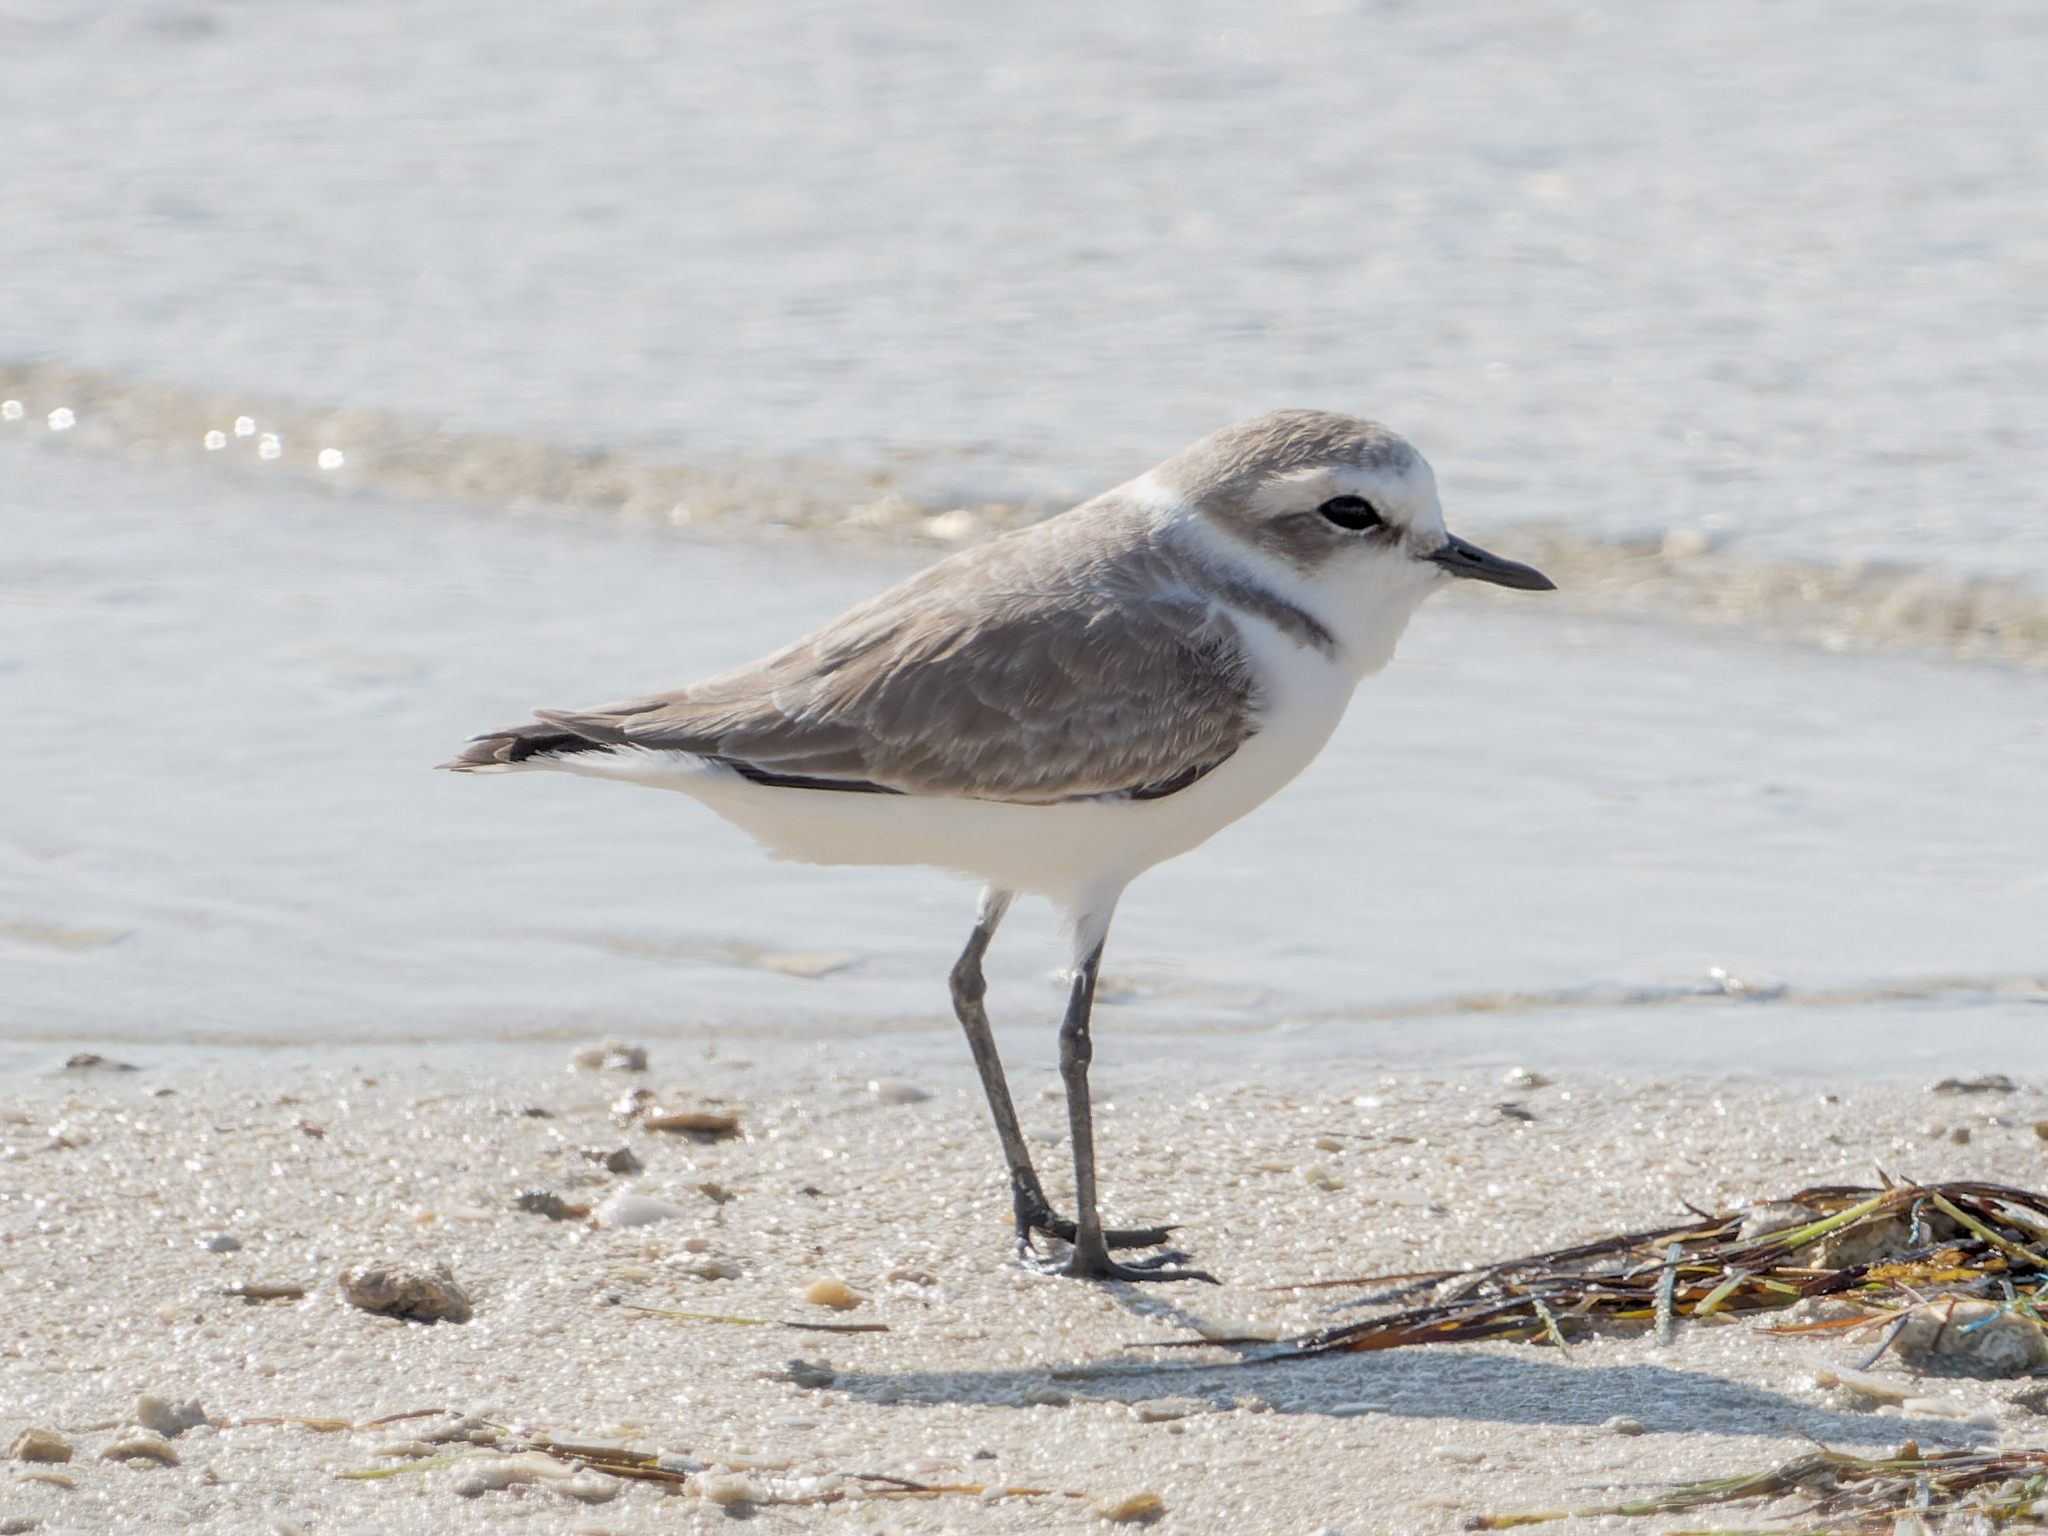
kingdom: Animalia
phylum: Chordata
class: Aves
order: Charadriiformes
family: Charadriidae
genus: Charadrius
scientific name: Charadrius alexandrinus
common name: Kentish plover
